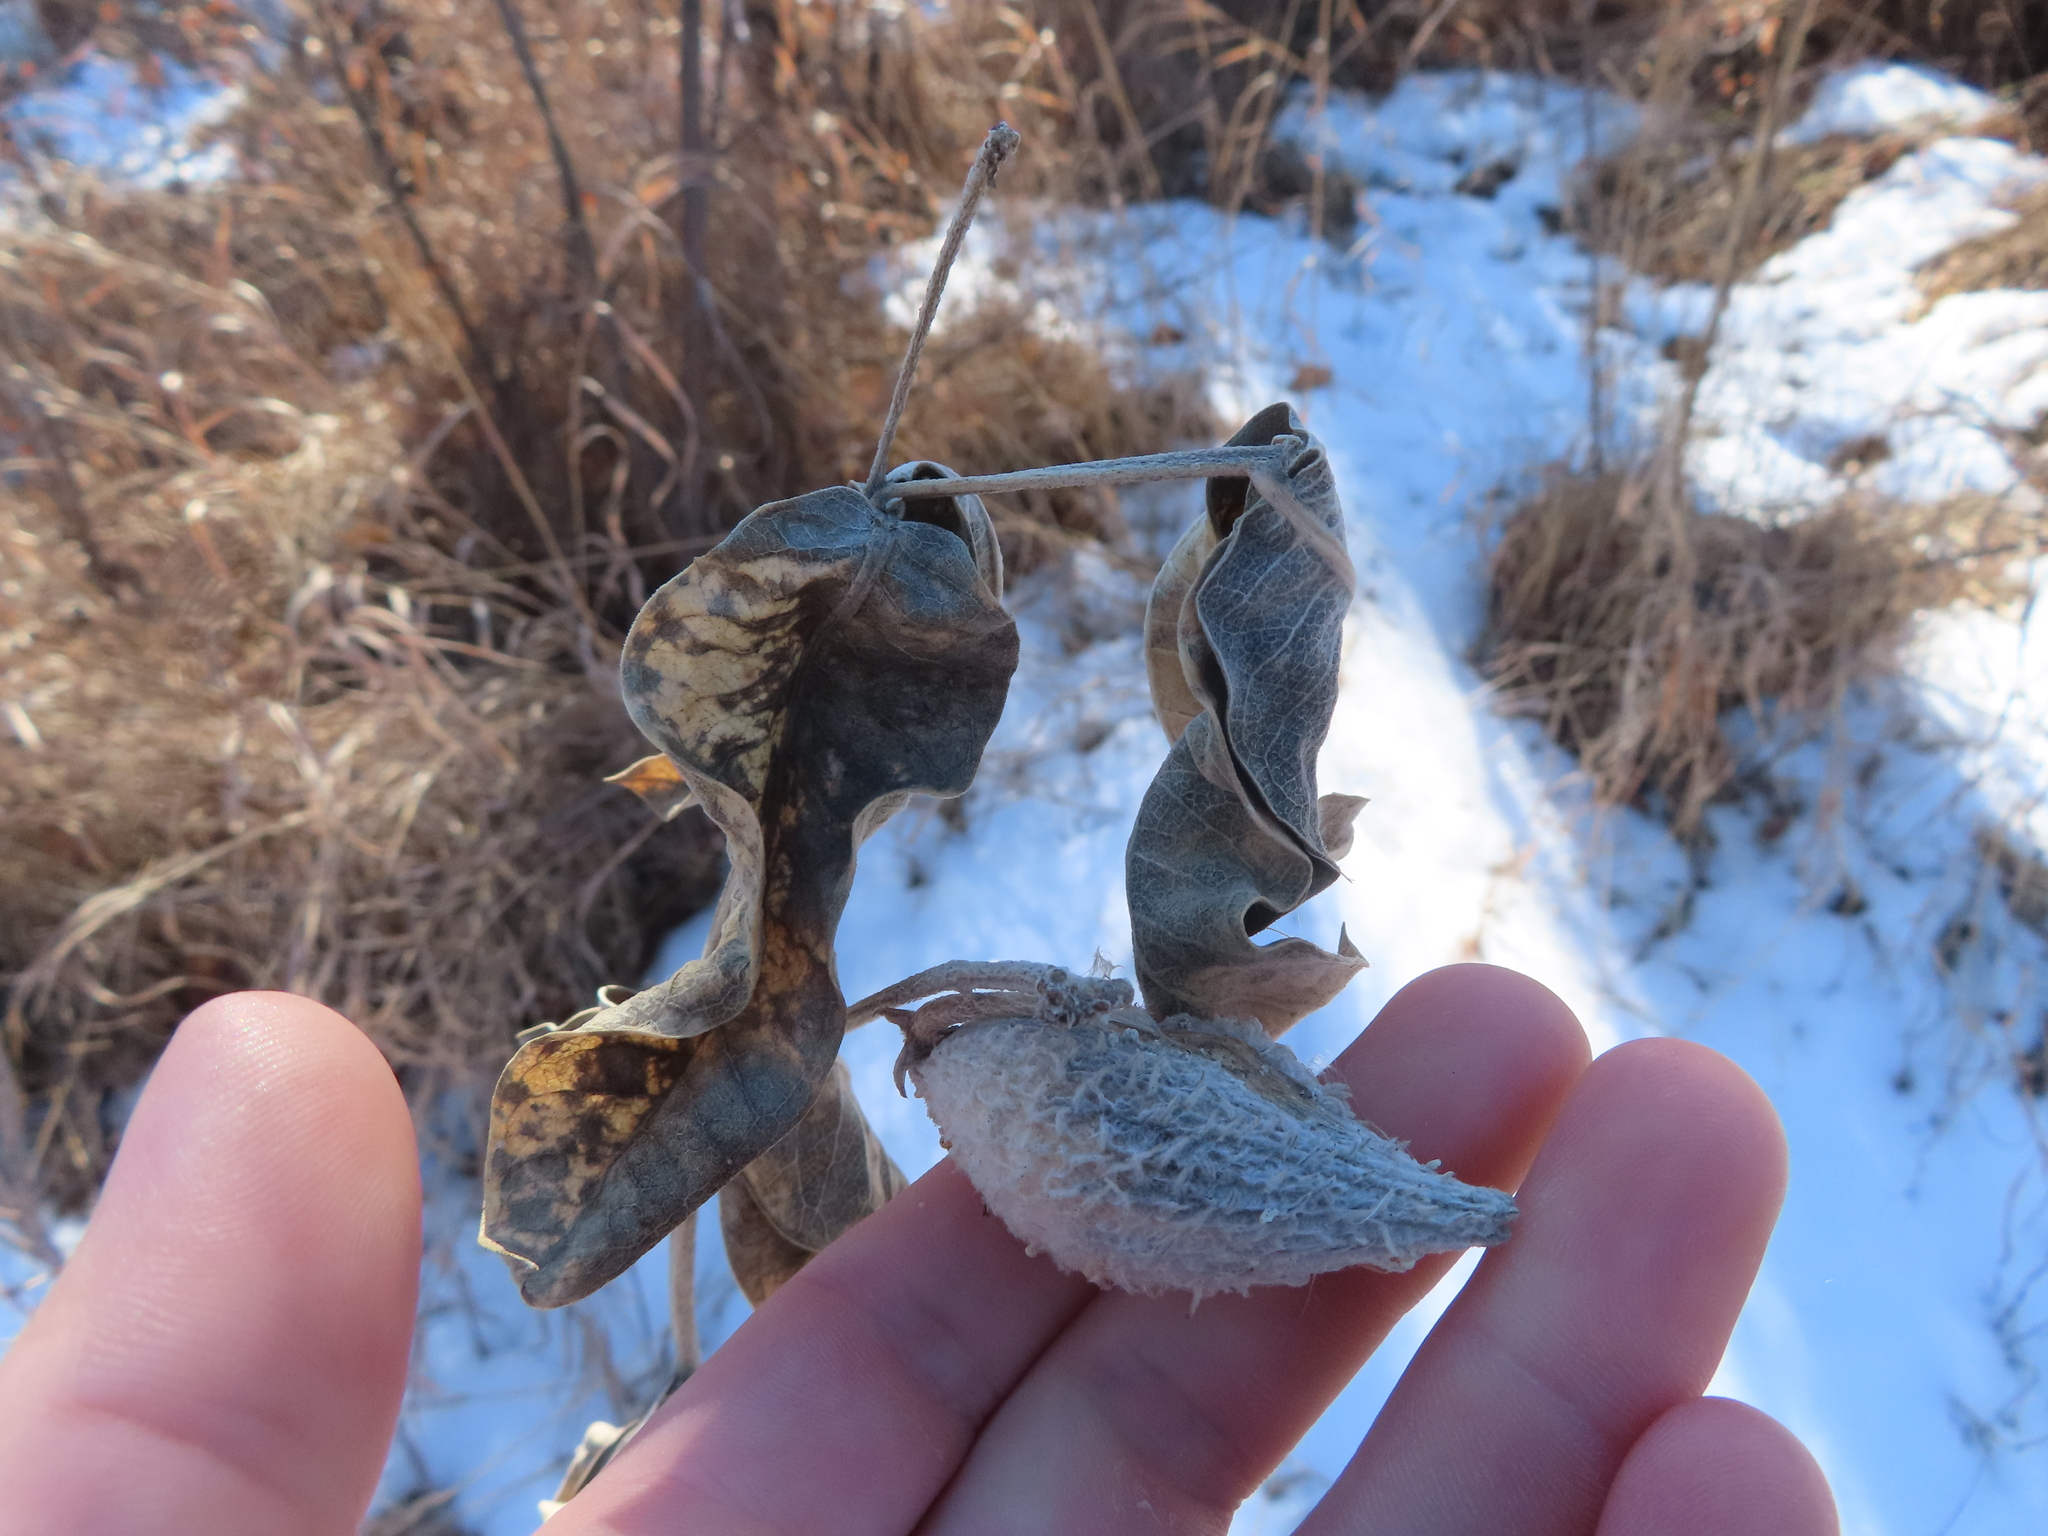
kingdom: Plantae
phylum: Tracheophyta
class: Magnoliopsida
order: Gentianales
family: Apocynaceae
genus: Asclepias
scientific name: Asclepias speciosa
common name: Showy milkweed
